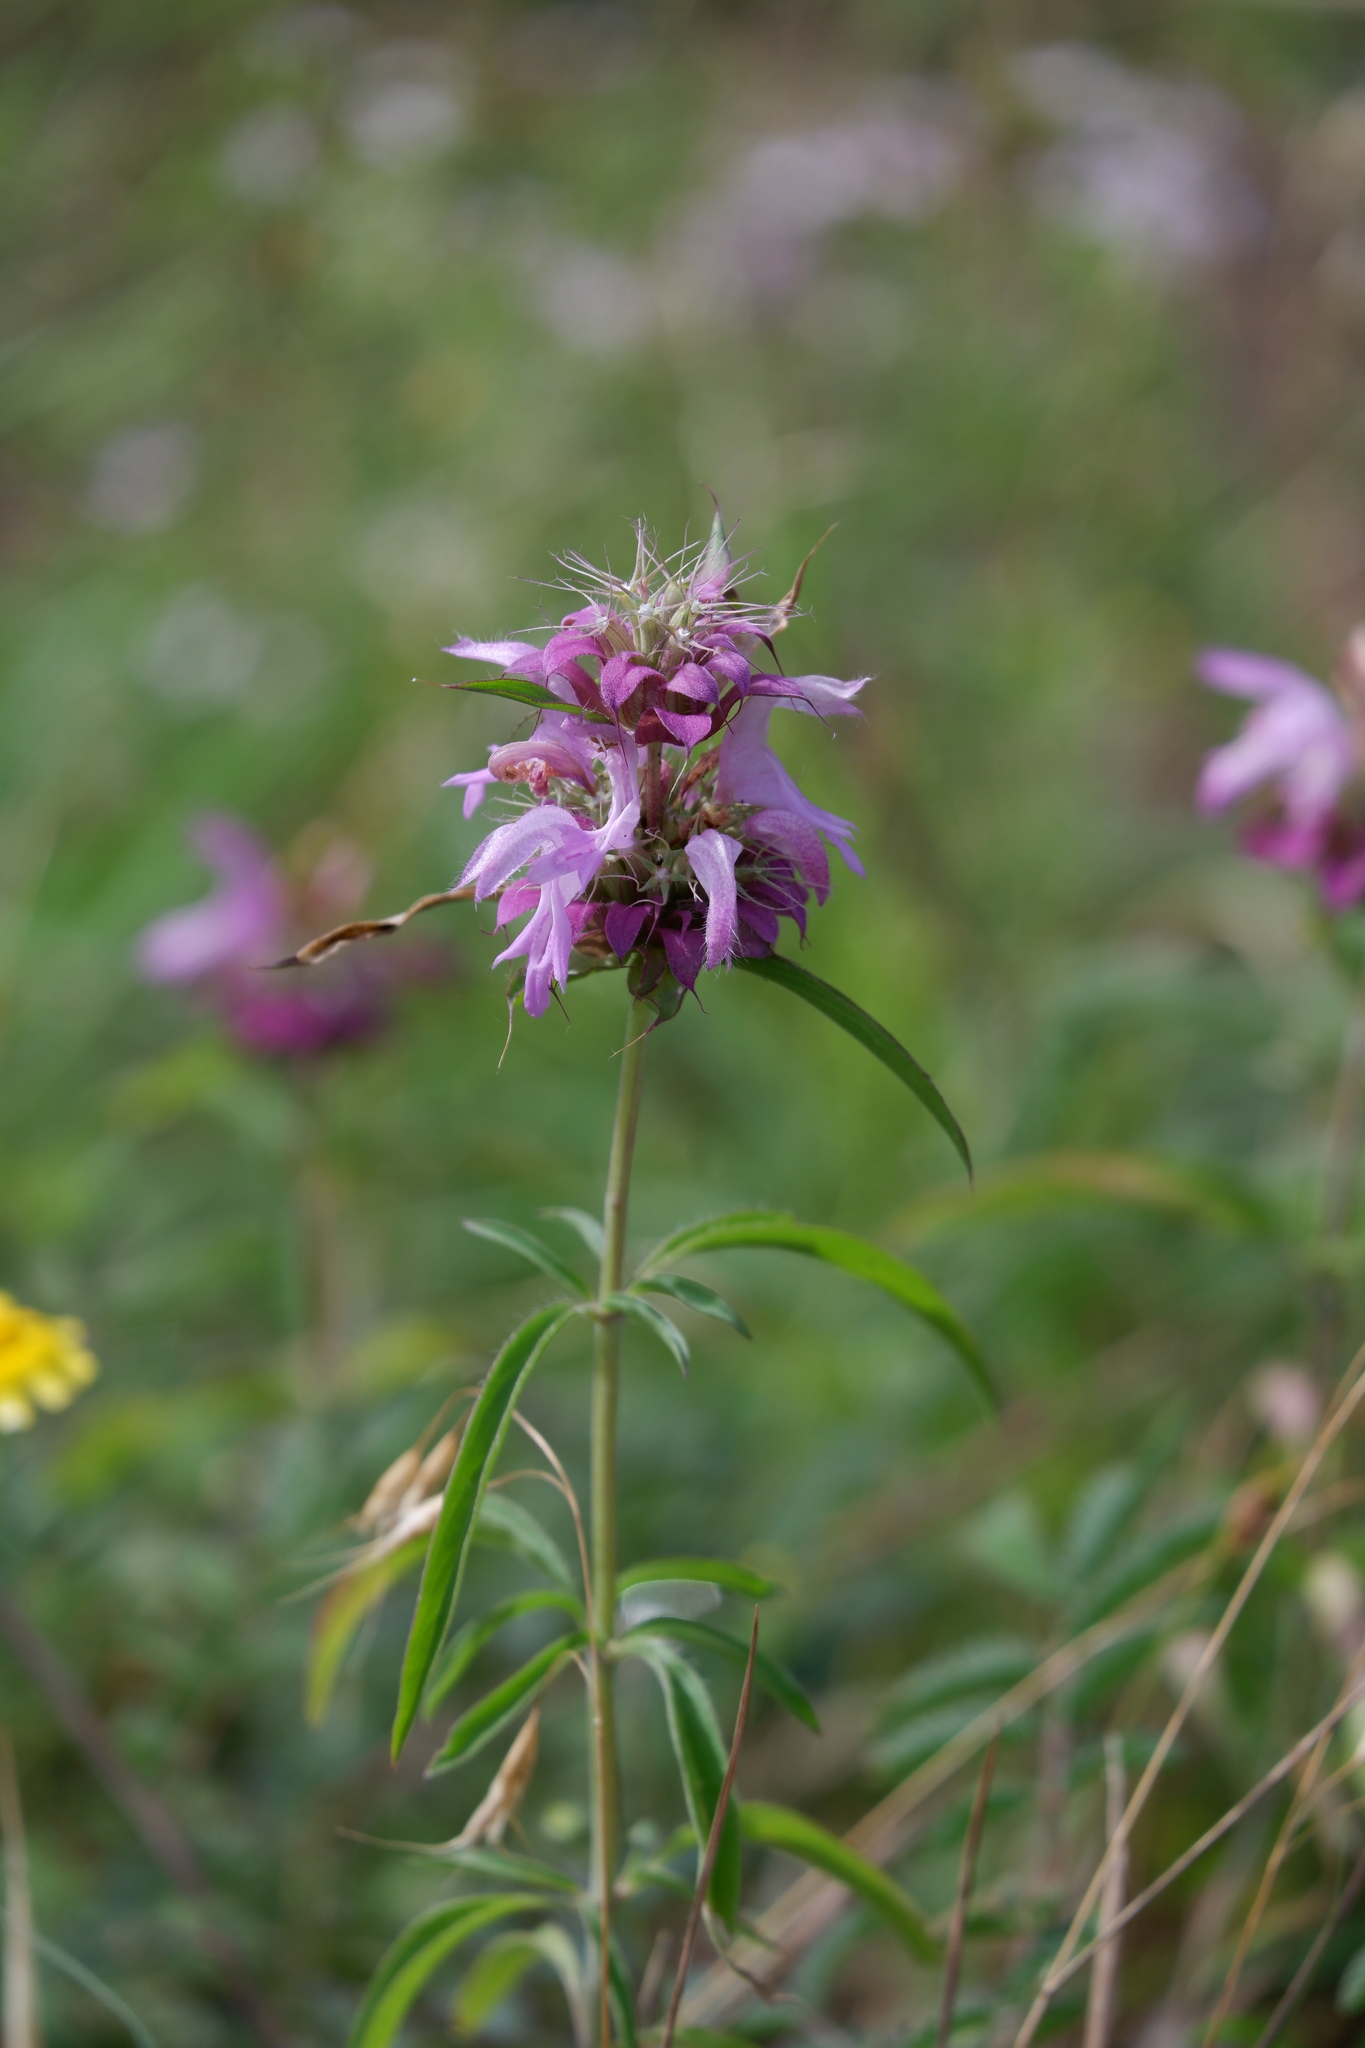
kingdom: Plantae
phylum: Tracheophyta
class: Magnoliopsida
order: Lamiales
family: Lamiaceae
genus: Monarda
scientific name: Monarda citriodora
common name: Lemon beebalm
